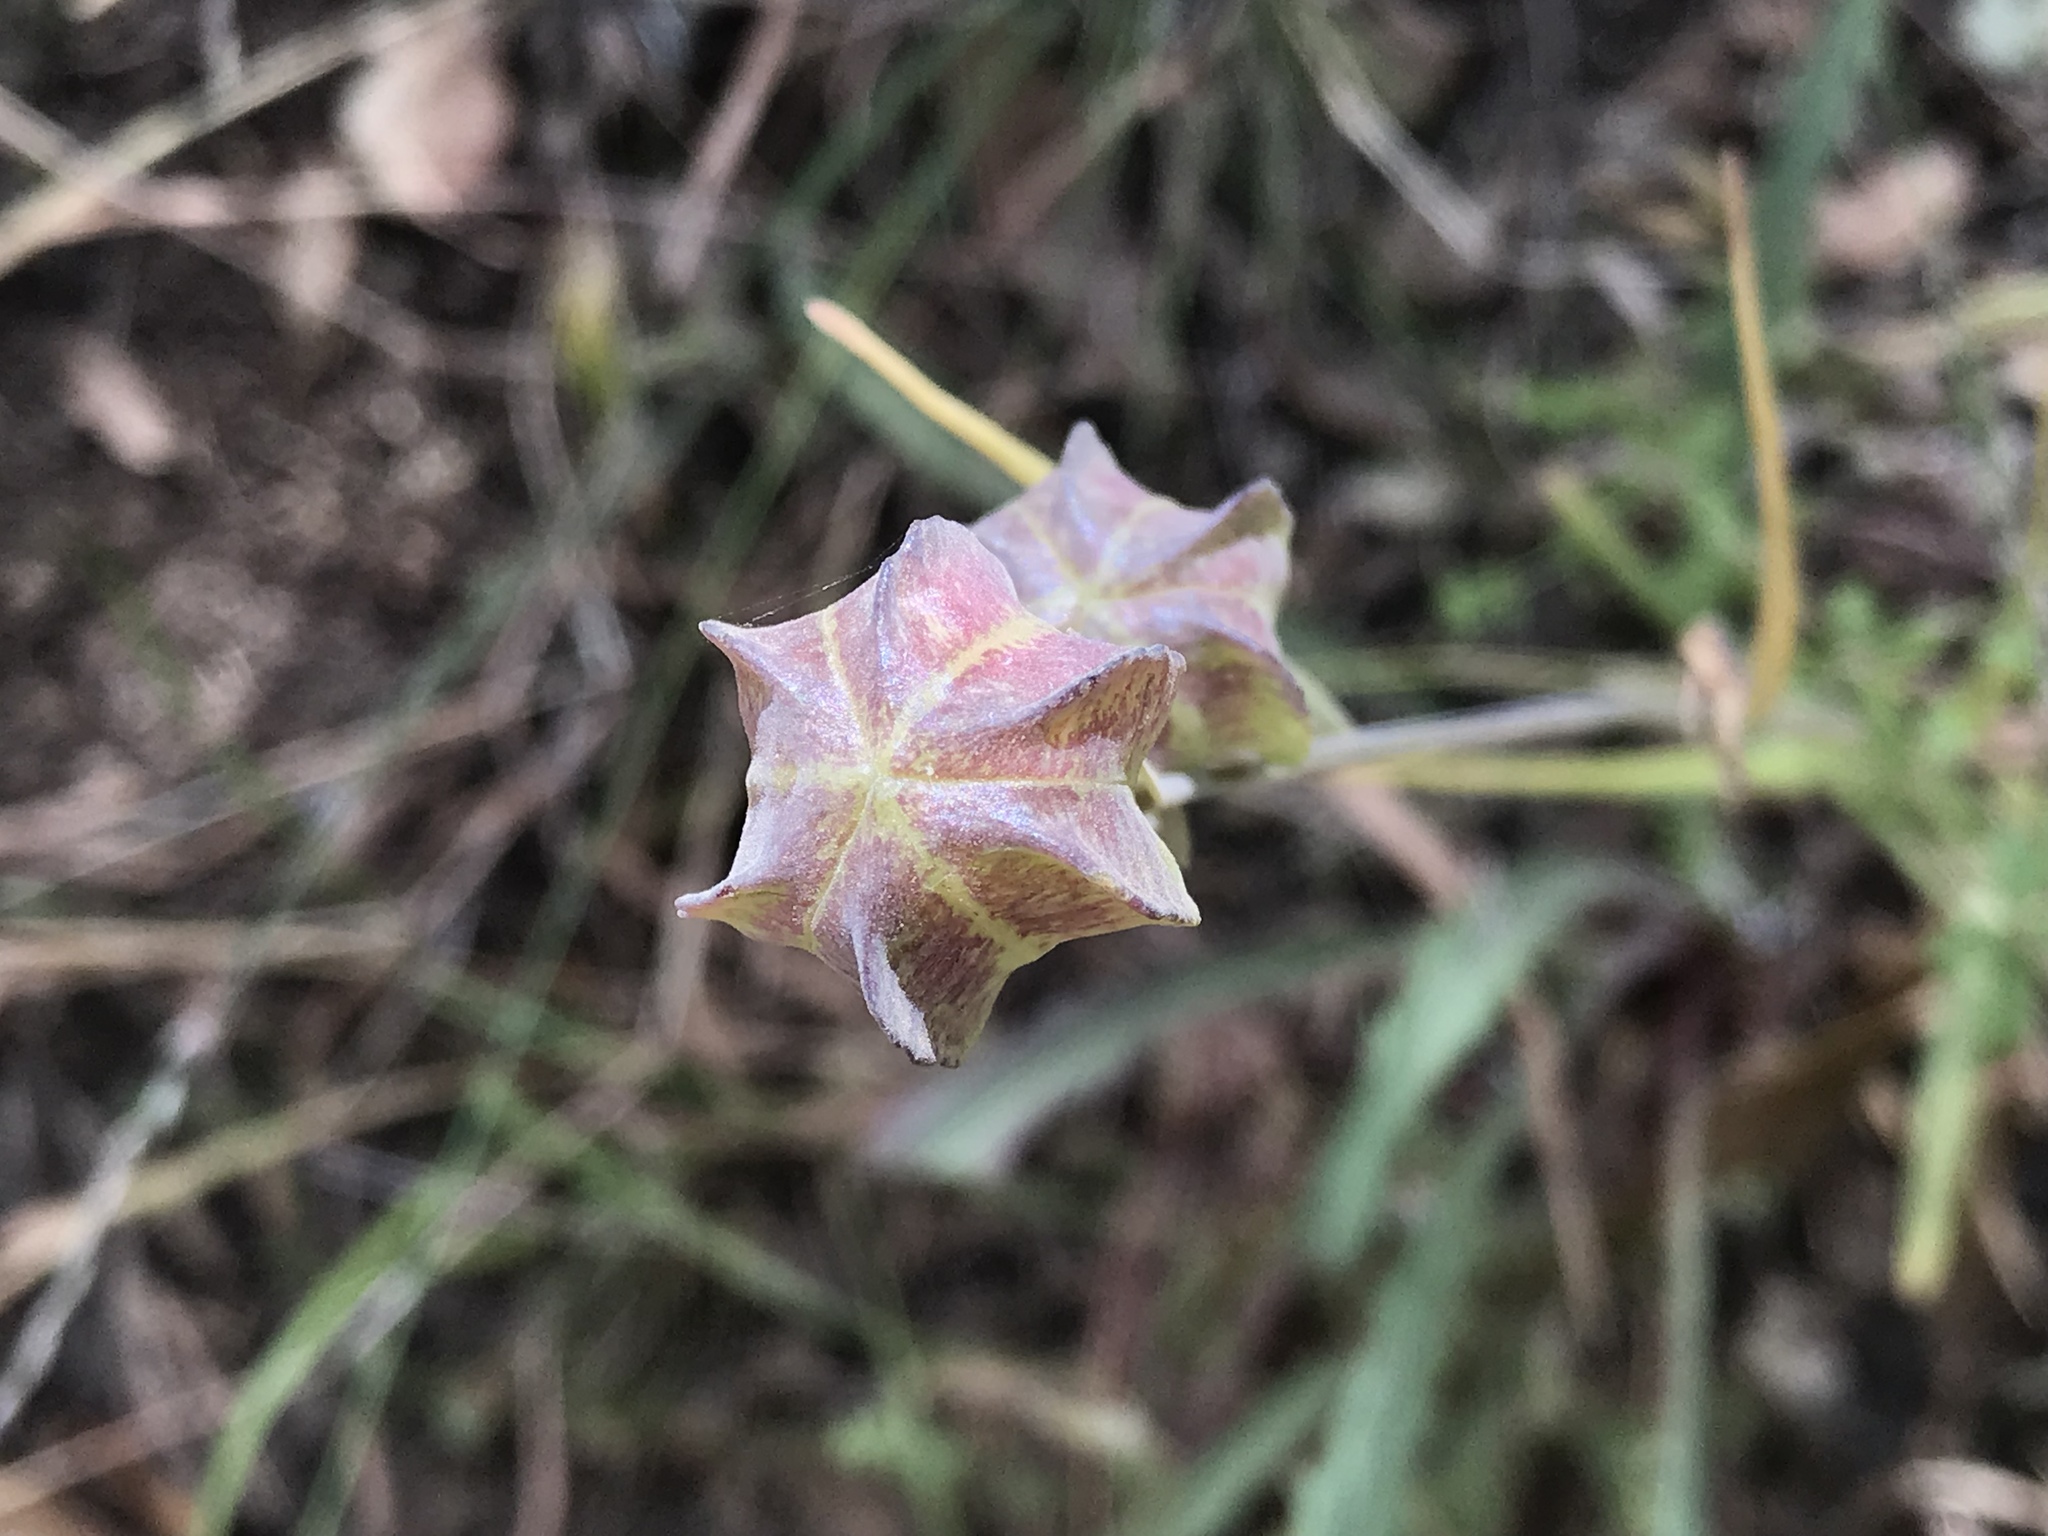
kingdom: Plantae
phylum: Tracheophyta
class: Liliopsida
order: Liliales
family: Liliaceae
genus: Fritillaria
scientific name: Fritillaria affinis
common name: Ojai fritillary
